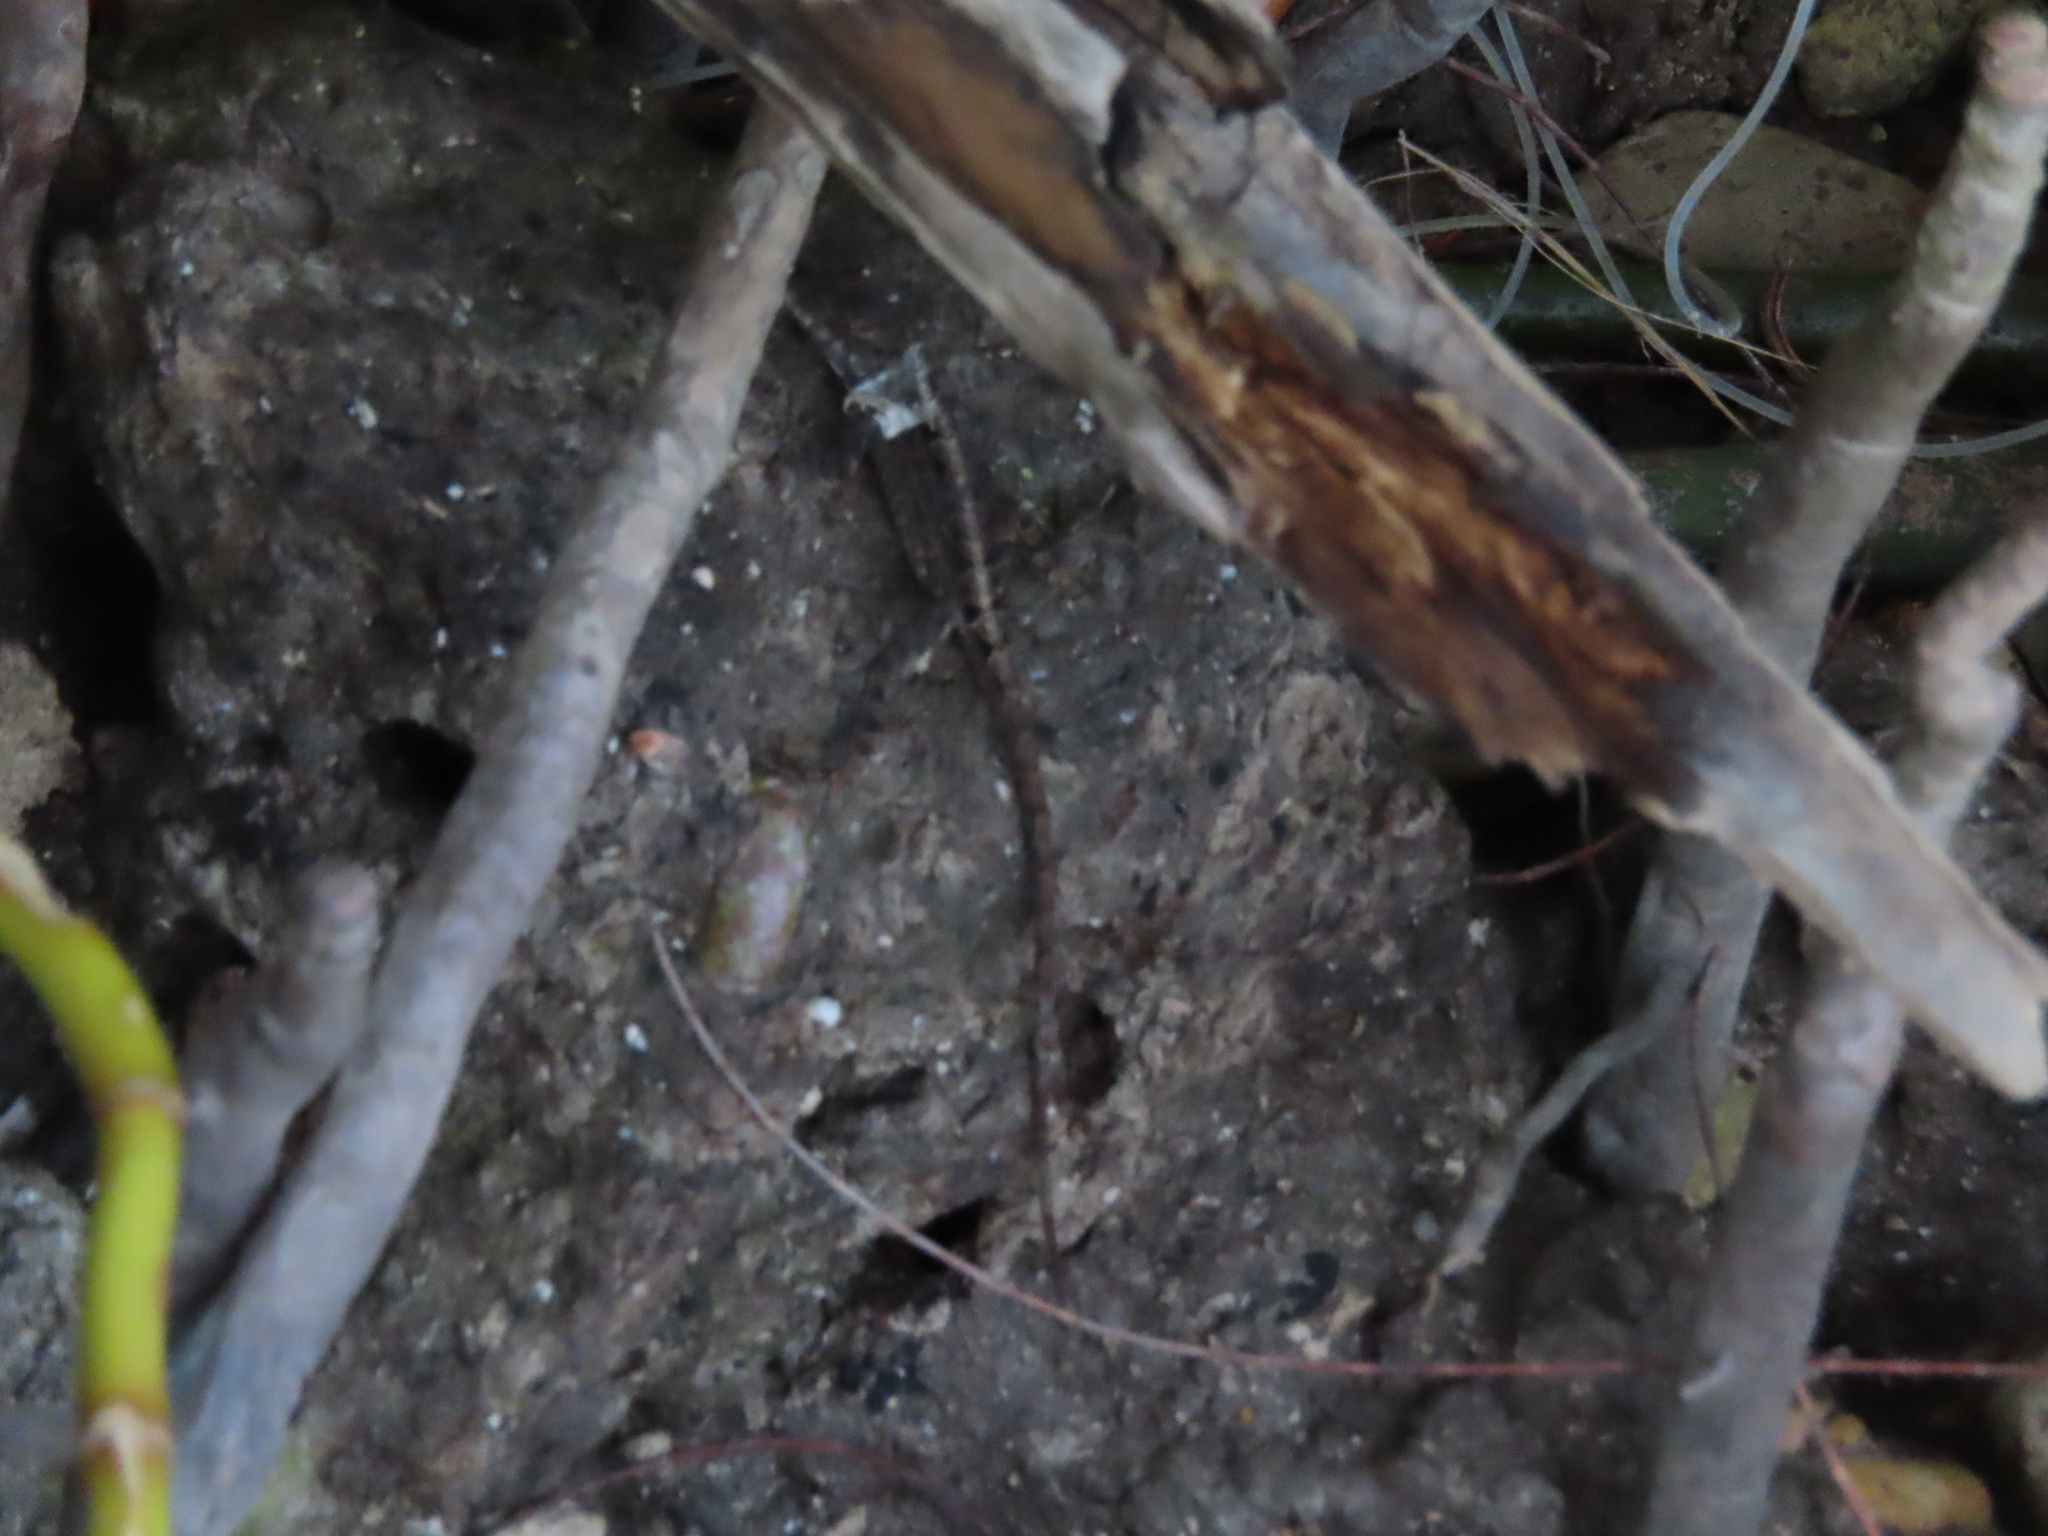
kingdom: Animalia
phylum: Chordata
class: Squamata
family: Dactyloidae
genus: Anolis
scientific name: Anolis sagrei
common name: Brown anole
